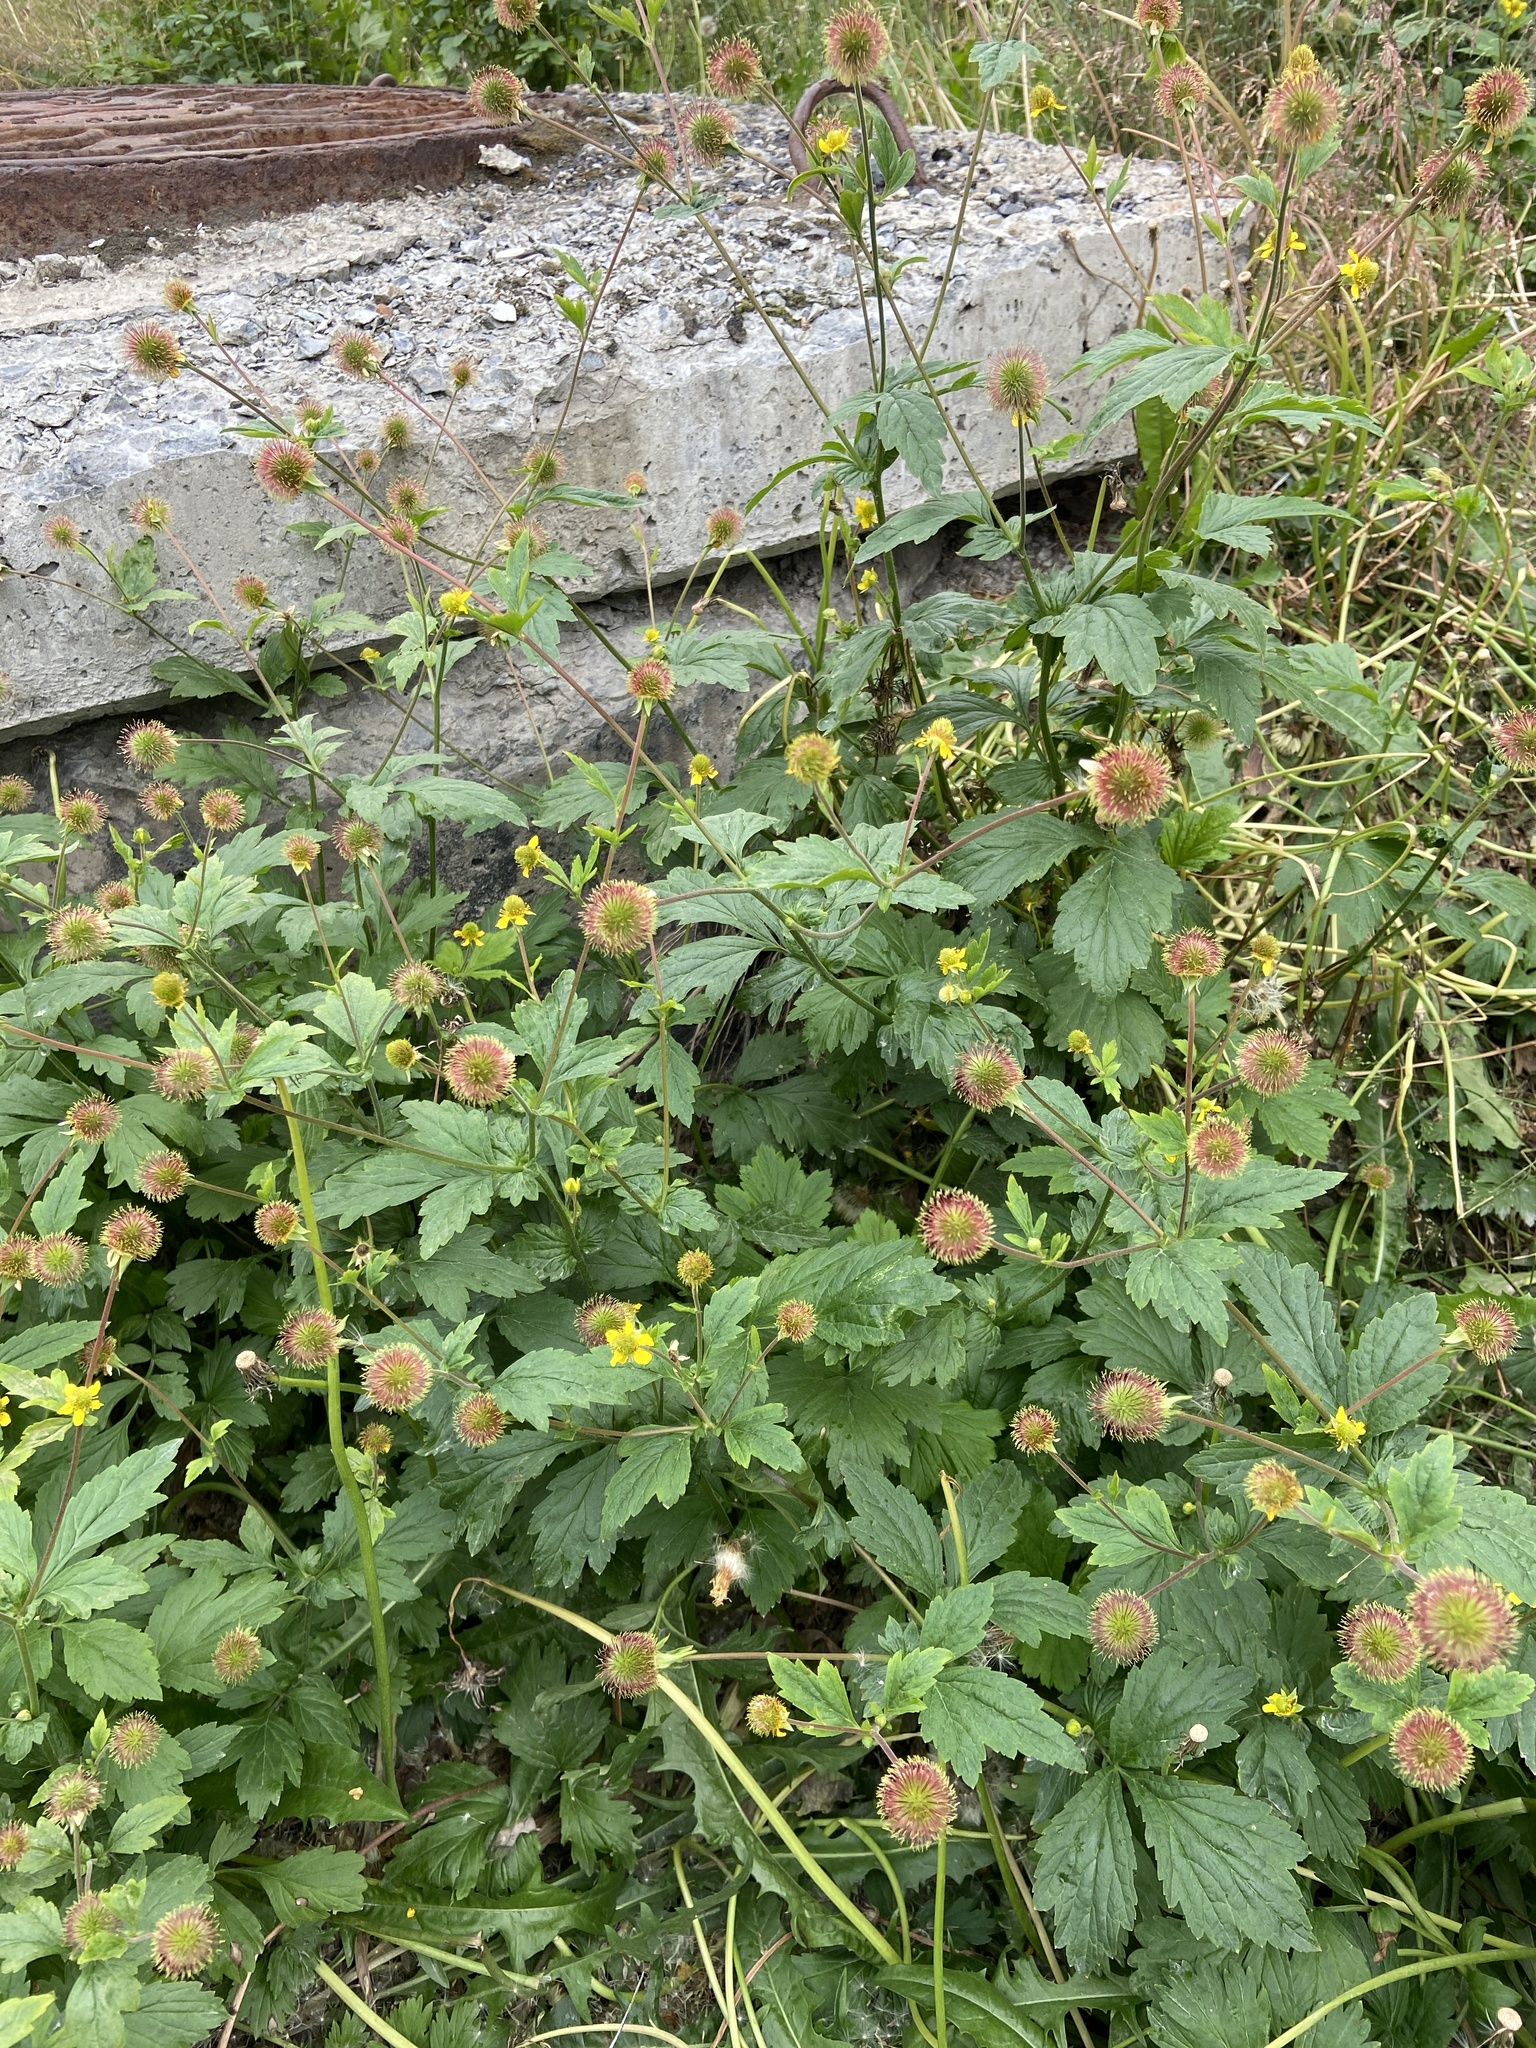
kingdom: Plantae
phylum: Tracheophyta
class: Magnoliopsida
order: Rosales
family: Rosaceae
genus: Geum
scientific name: Geum aleppicum
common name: Yellow avens
